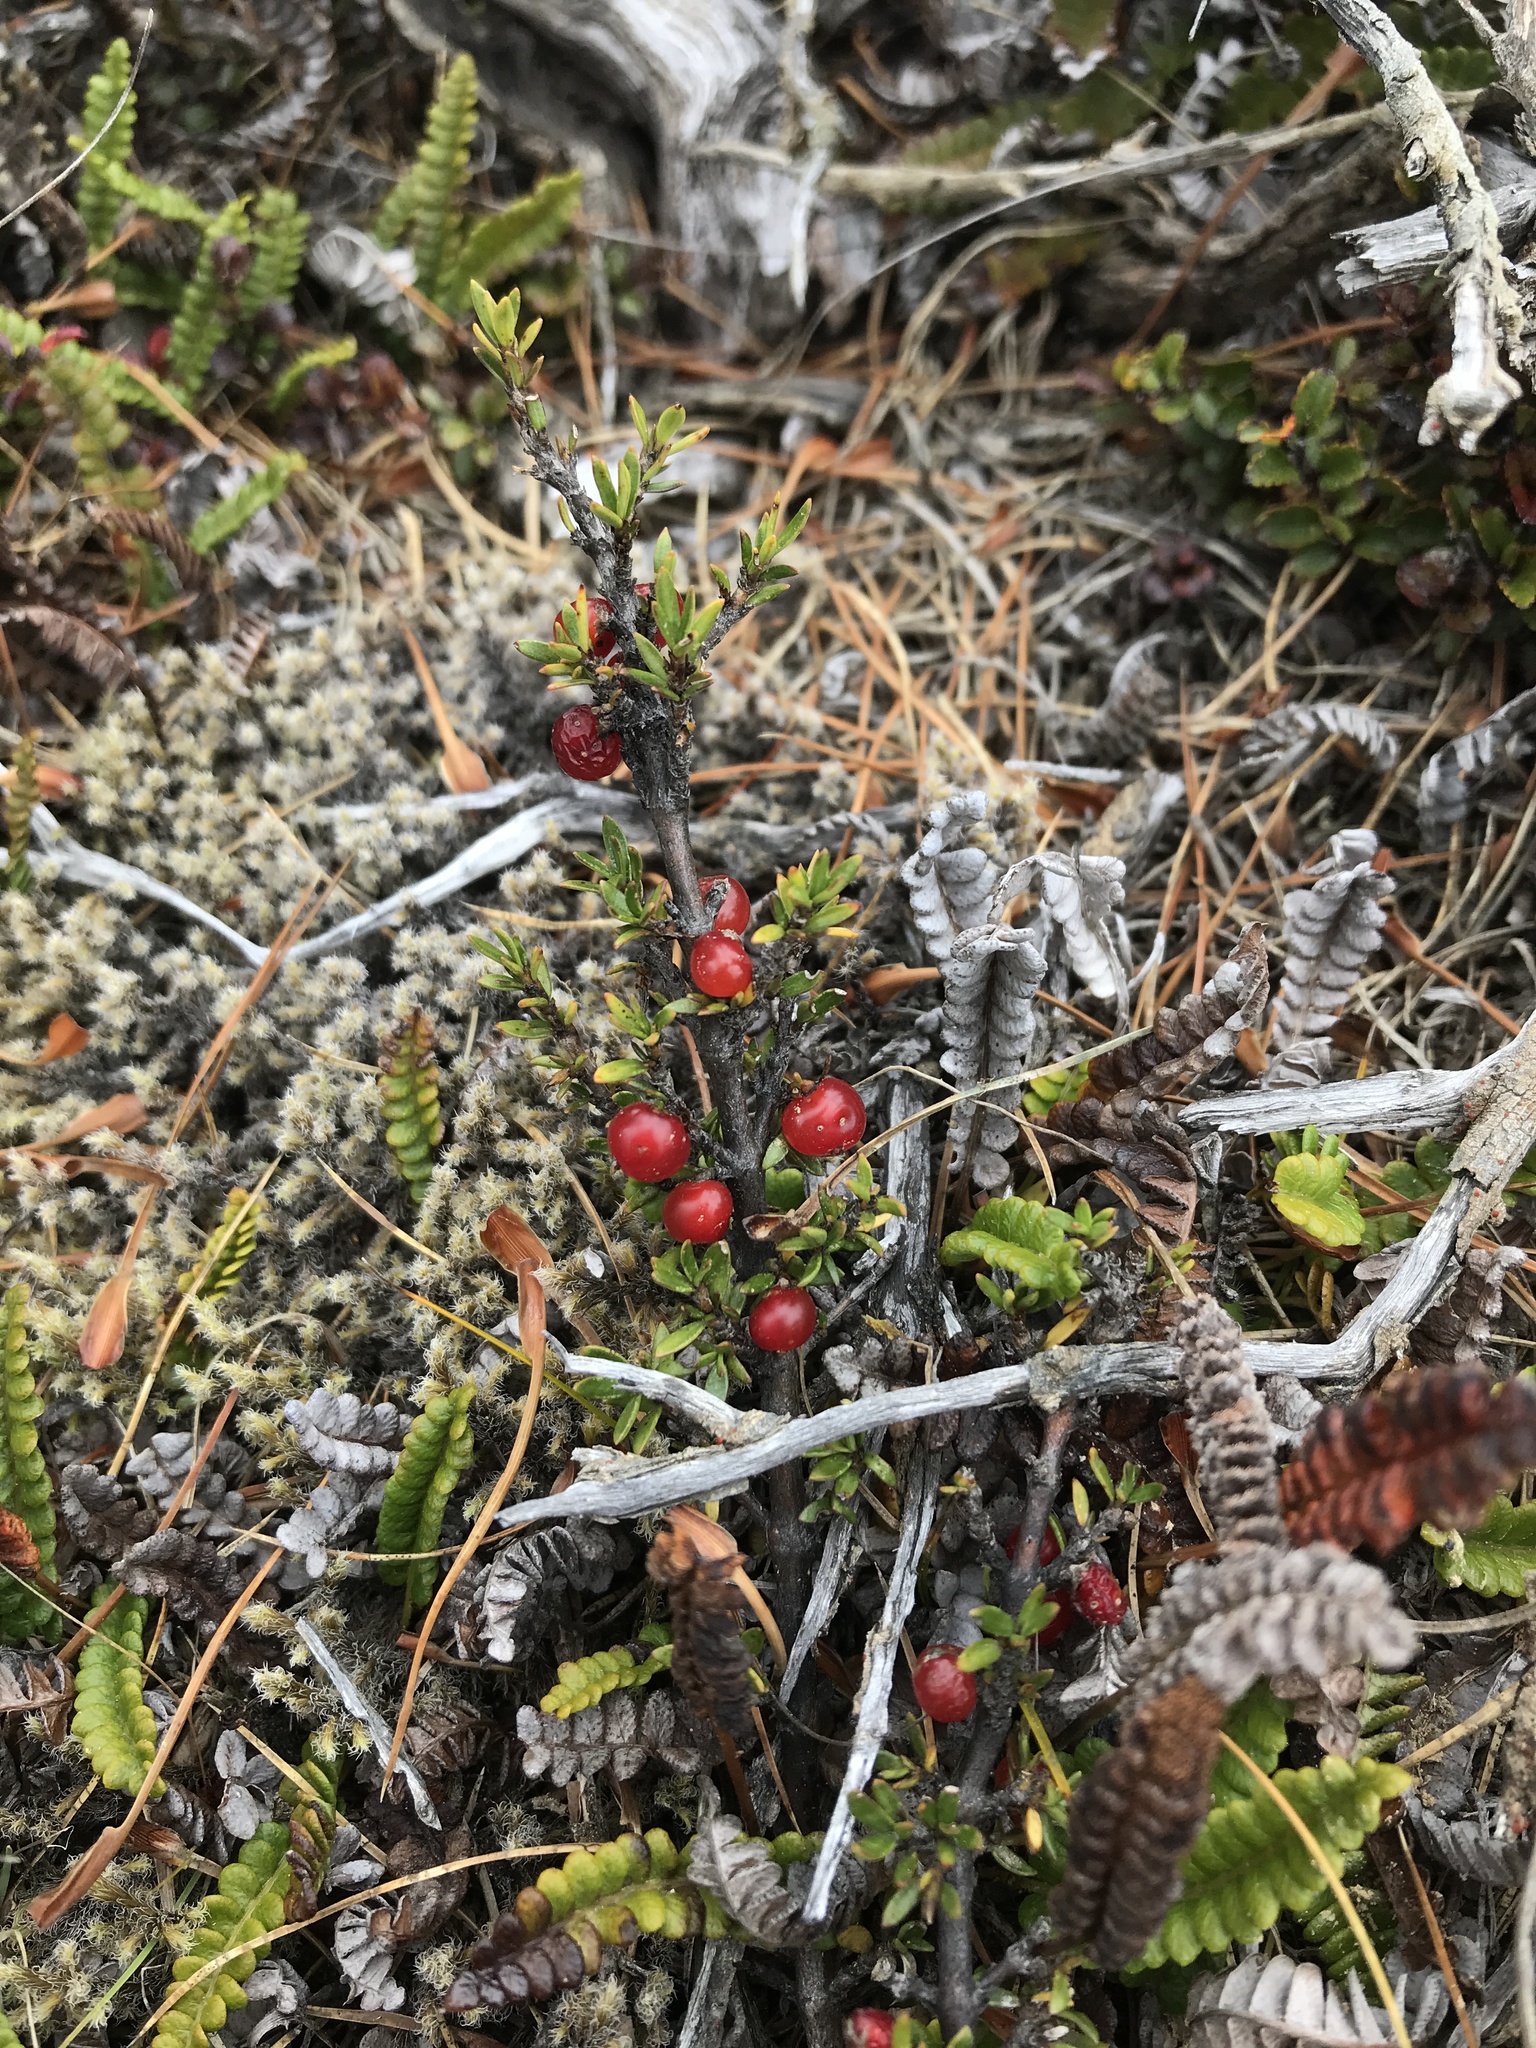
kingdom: Plantae
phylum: Tracheophyta
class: Magnoliopsida
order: Gentianales
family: Rubiaceae
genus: Coprosma
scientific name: Coprosma cheesemanii
